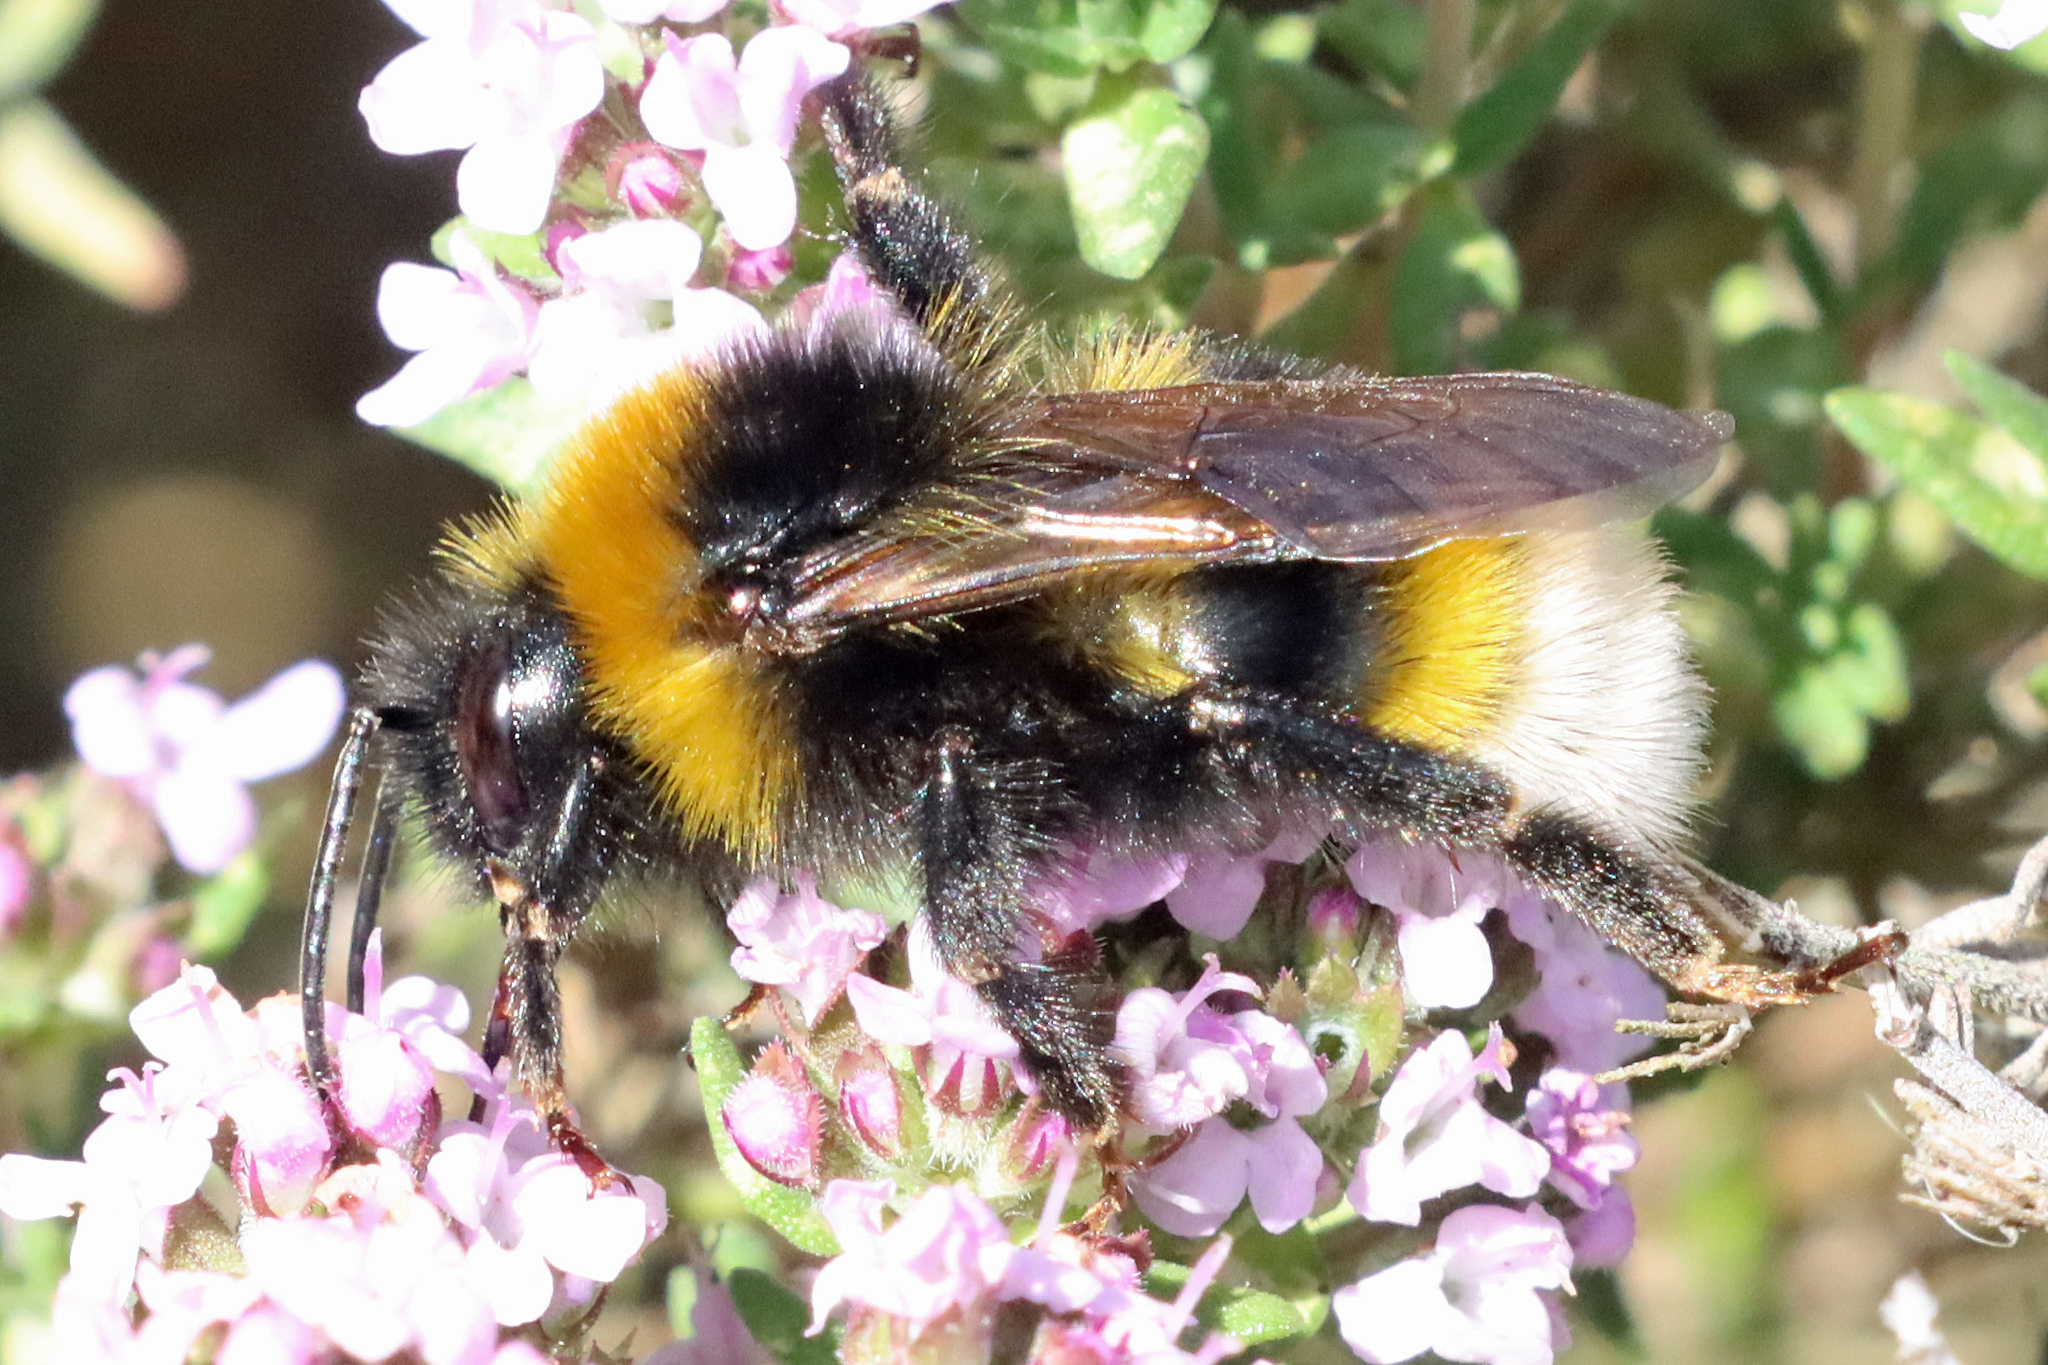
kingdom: Animalia
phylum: Arthropoda
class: Insecta
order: Hymenoptera
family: Apidae
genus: Bombus
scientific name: Bombus vestalis
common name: Vestal cuckoo bee
